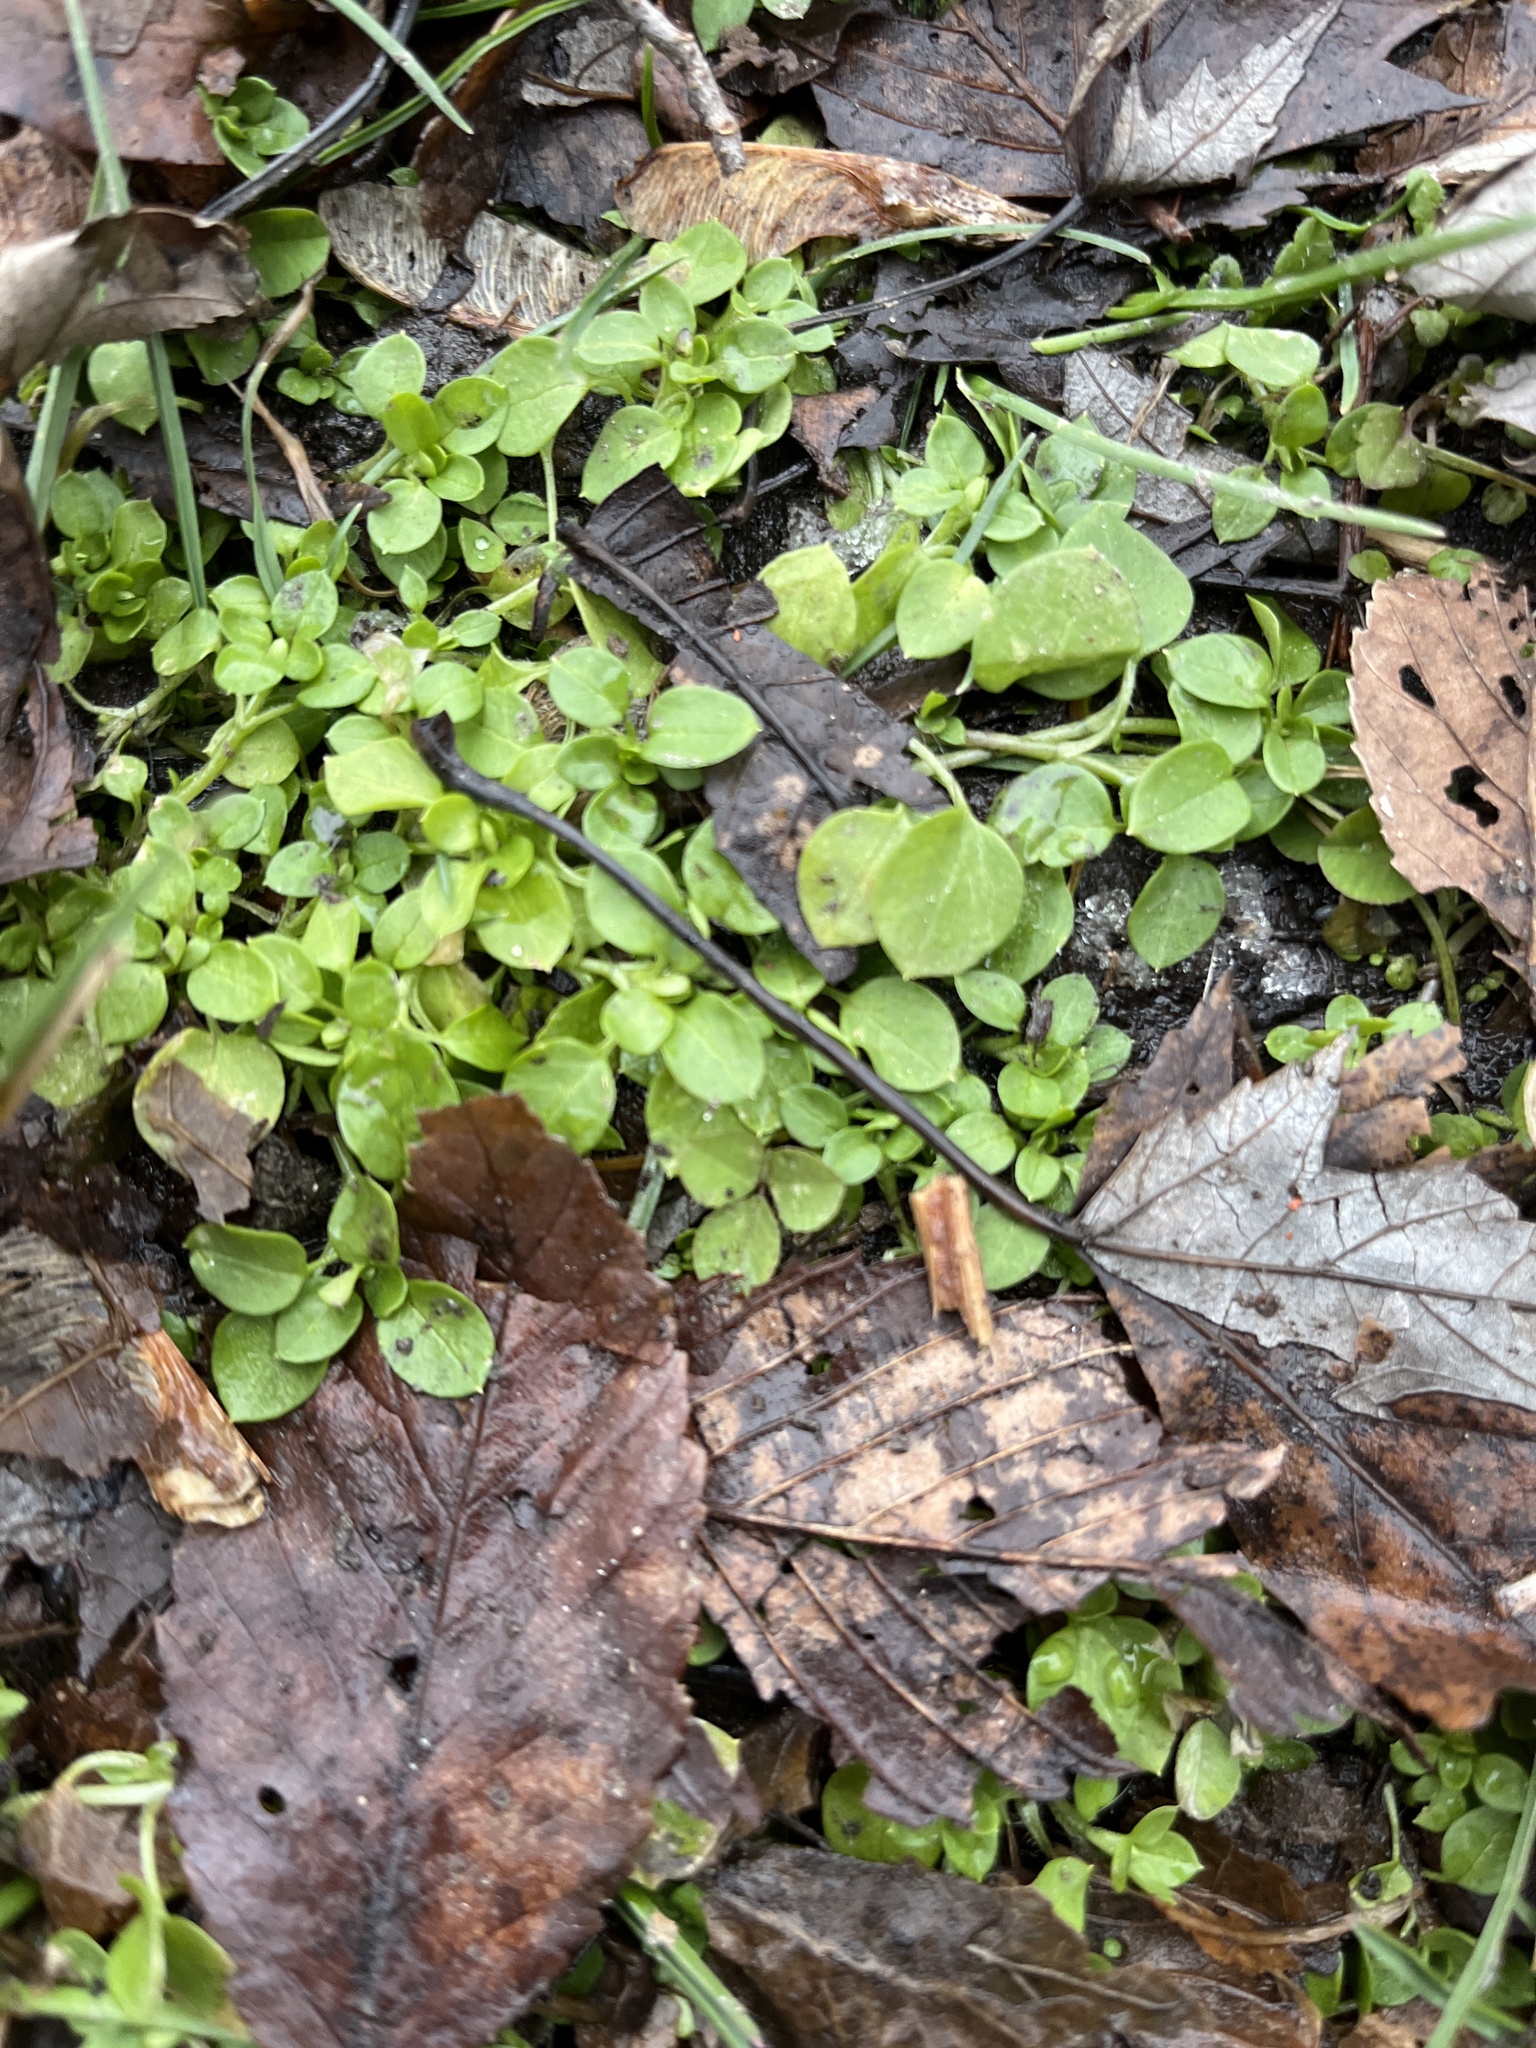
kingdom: Plantae
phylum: Tracheophyta
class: Magnoliopsida
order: Caryophyllales
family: Caryophyllaceae
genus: Stellaria
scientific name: Stellaria media
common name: Common chickweed
